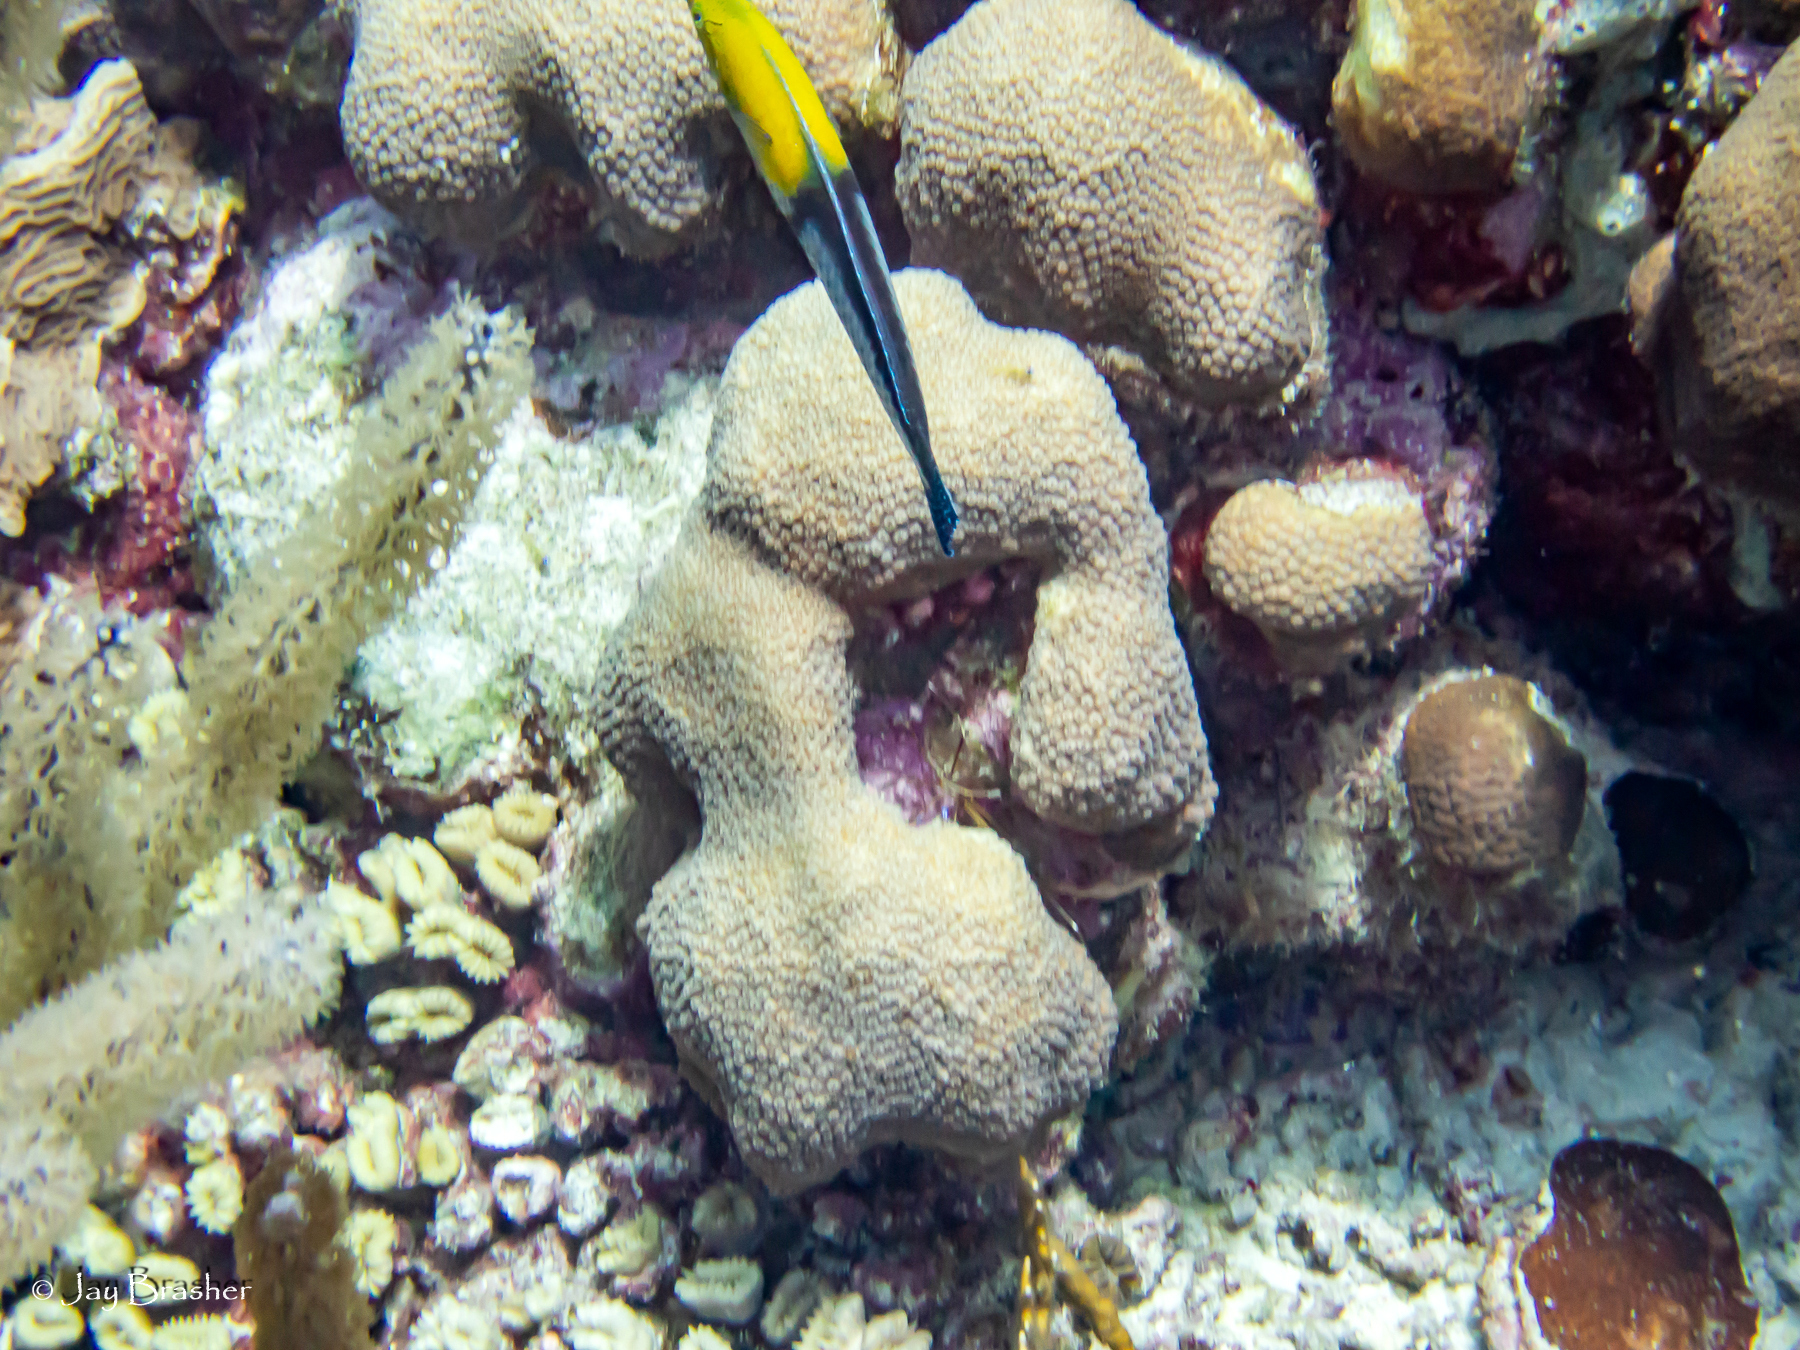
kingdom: Animalia
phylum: Cnidaria
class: Anthozoa
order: Scleractinia
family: Merulinidae
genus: Orbicella
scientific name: Orbicella annularis
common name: Boulder star coral
